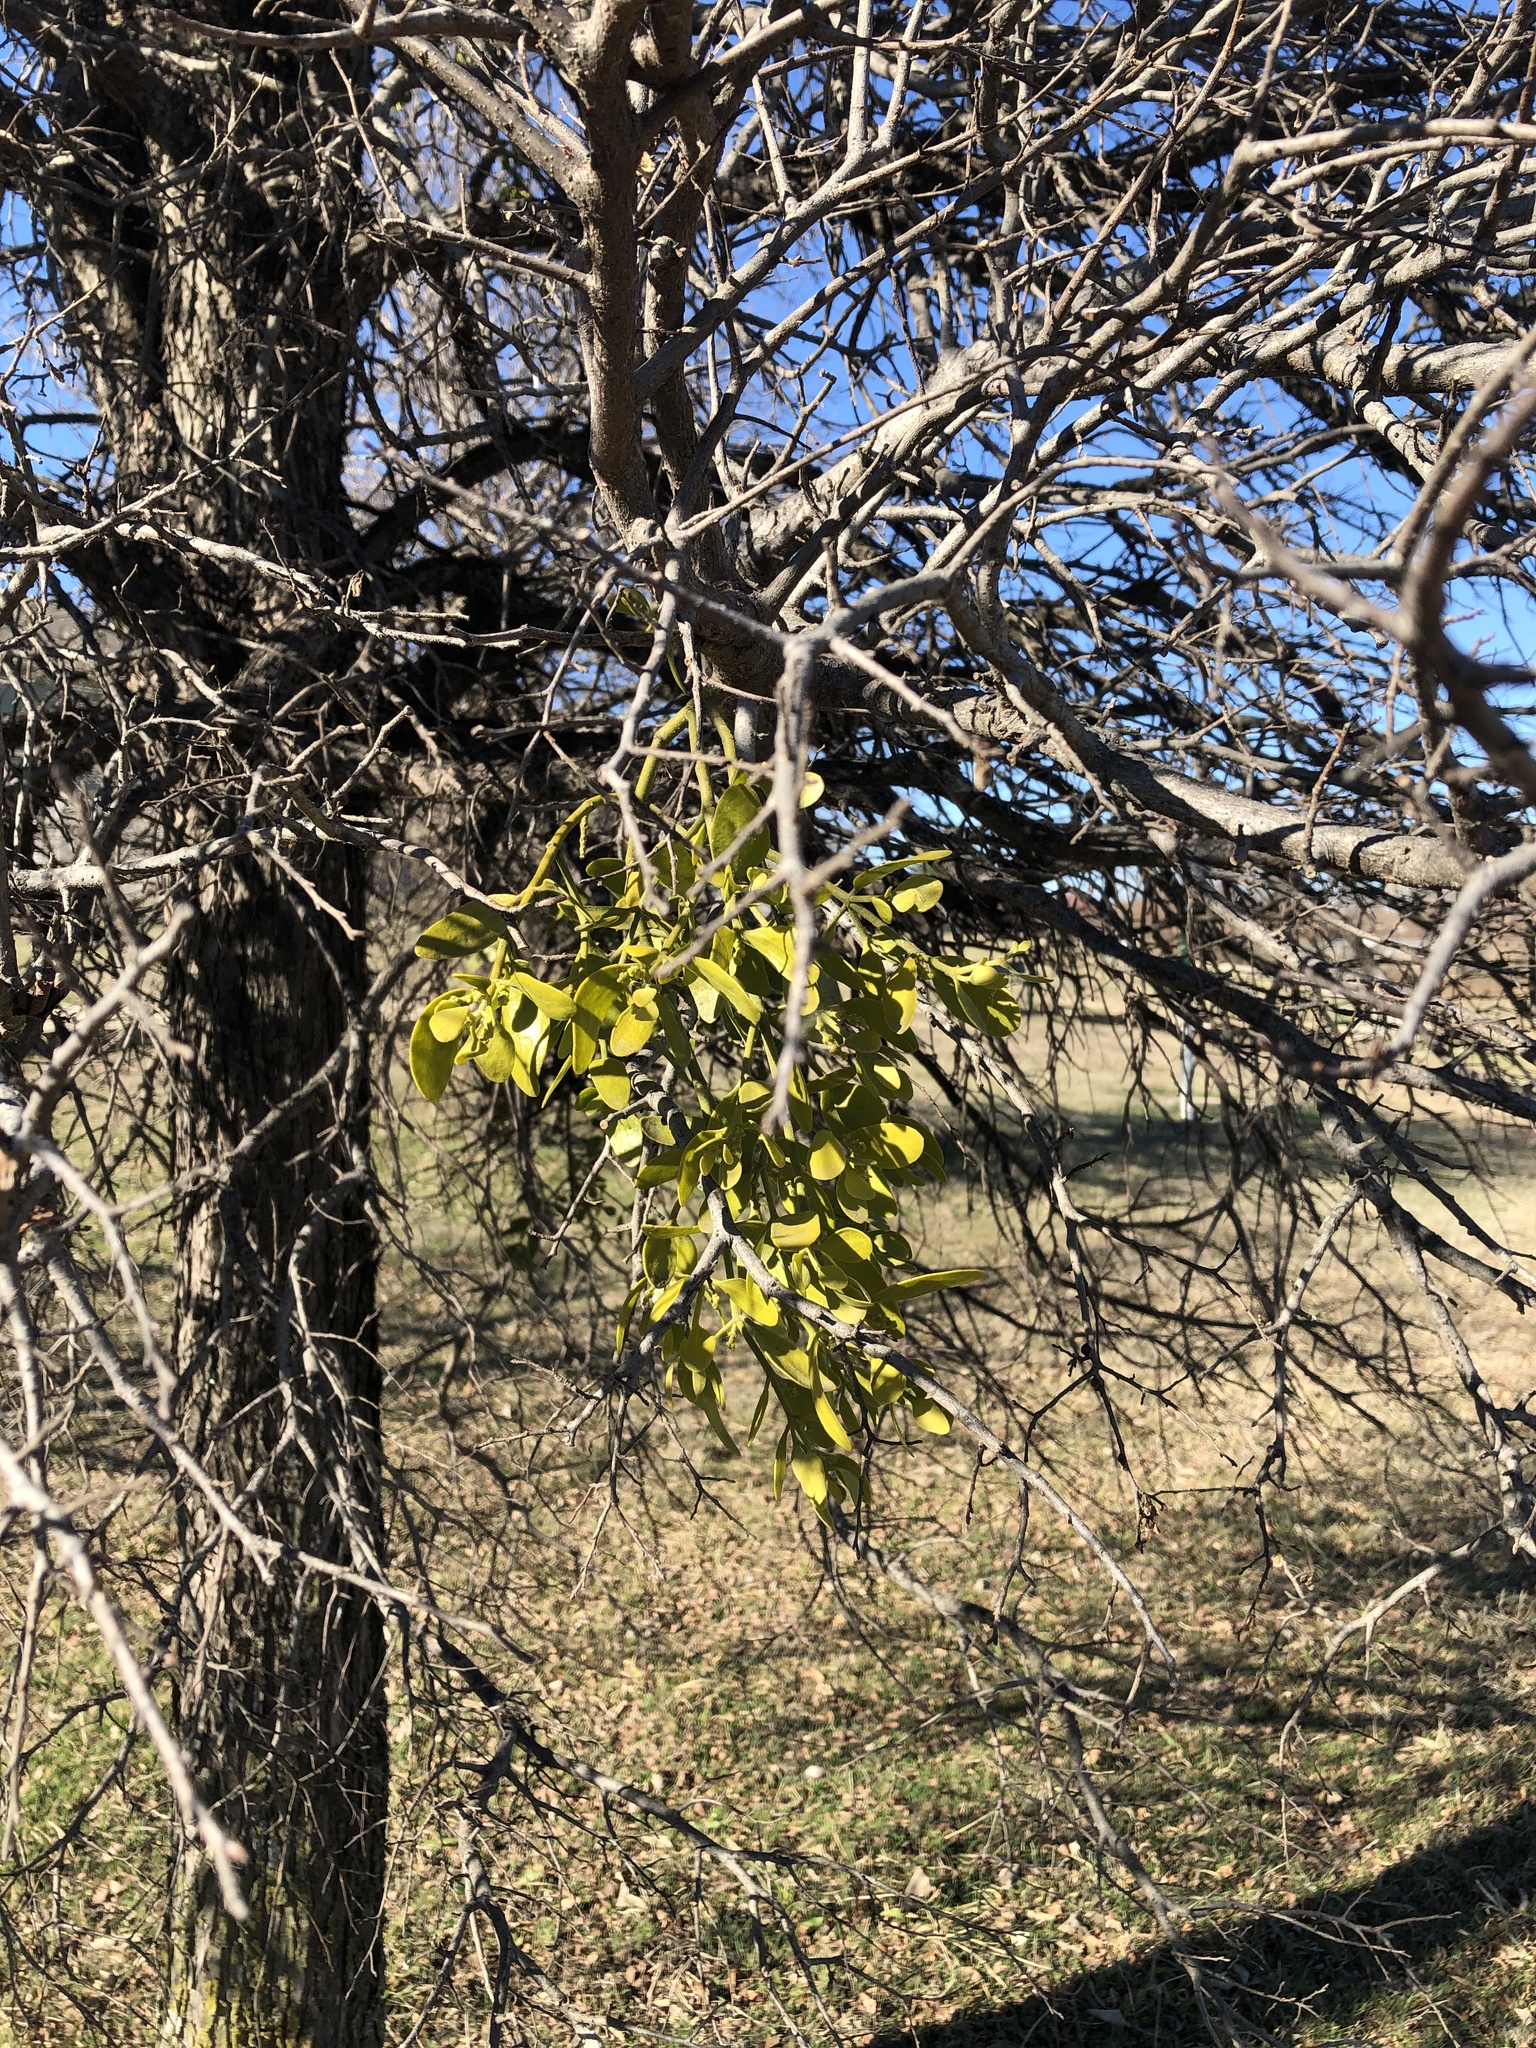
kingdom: Plantae
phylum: Tracheophyta
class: Magnoliopsida
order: Santalales
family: Viscaceae
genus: Phoradendron
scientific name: Phoradendron leucarpum
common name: Pacific mistletoe
